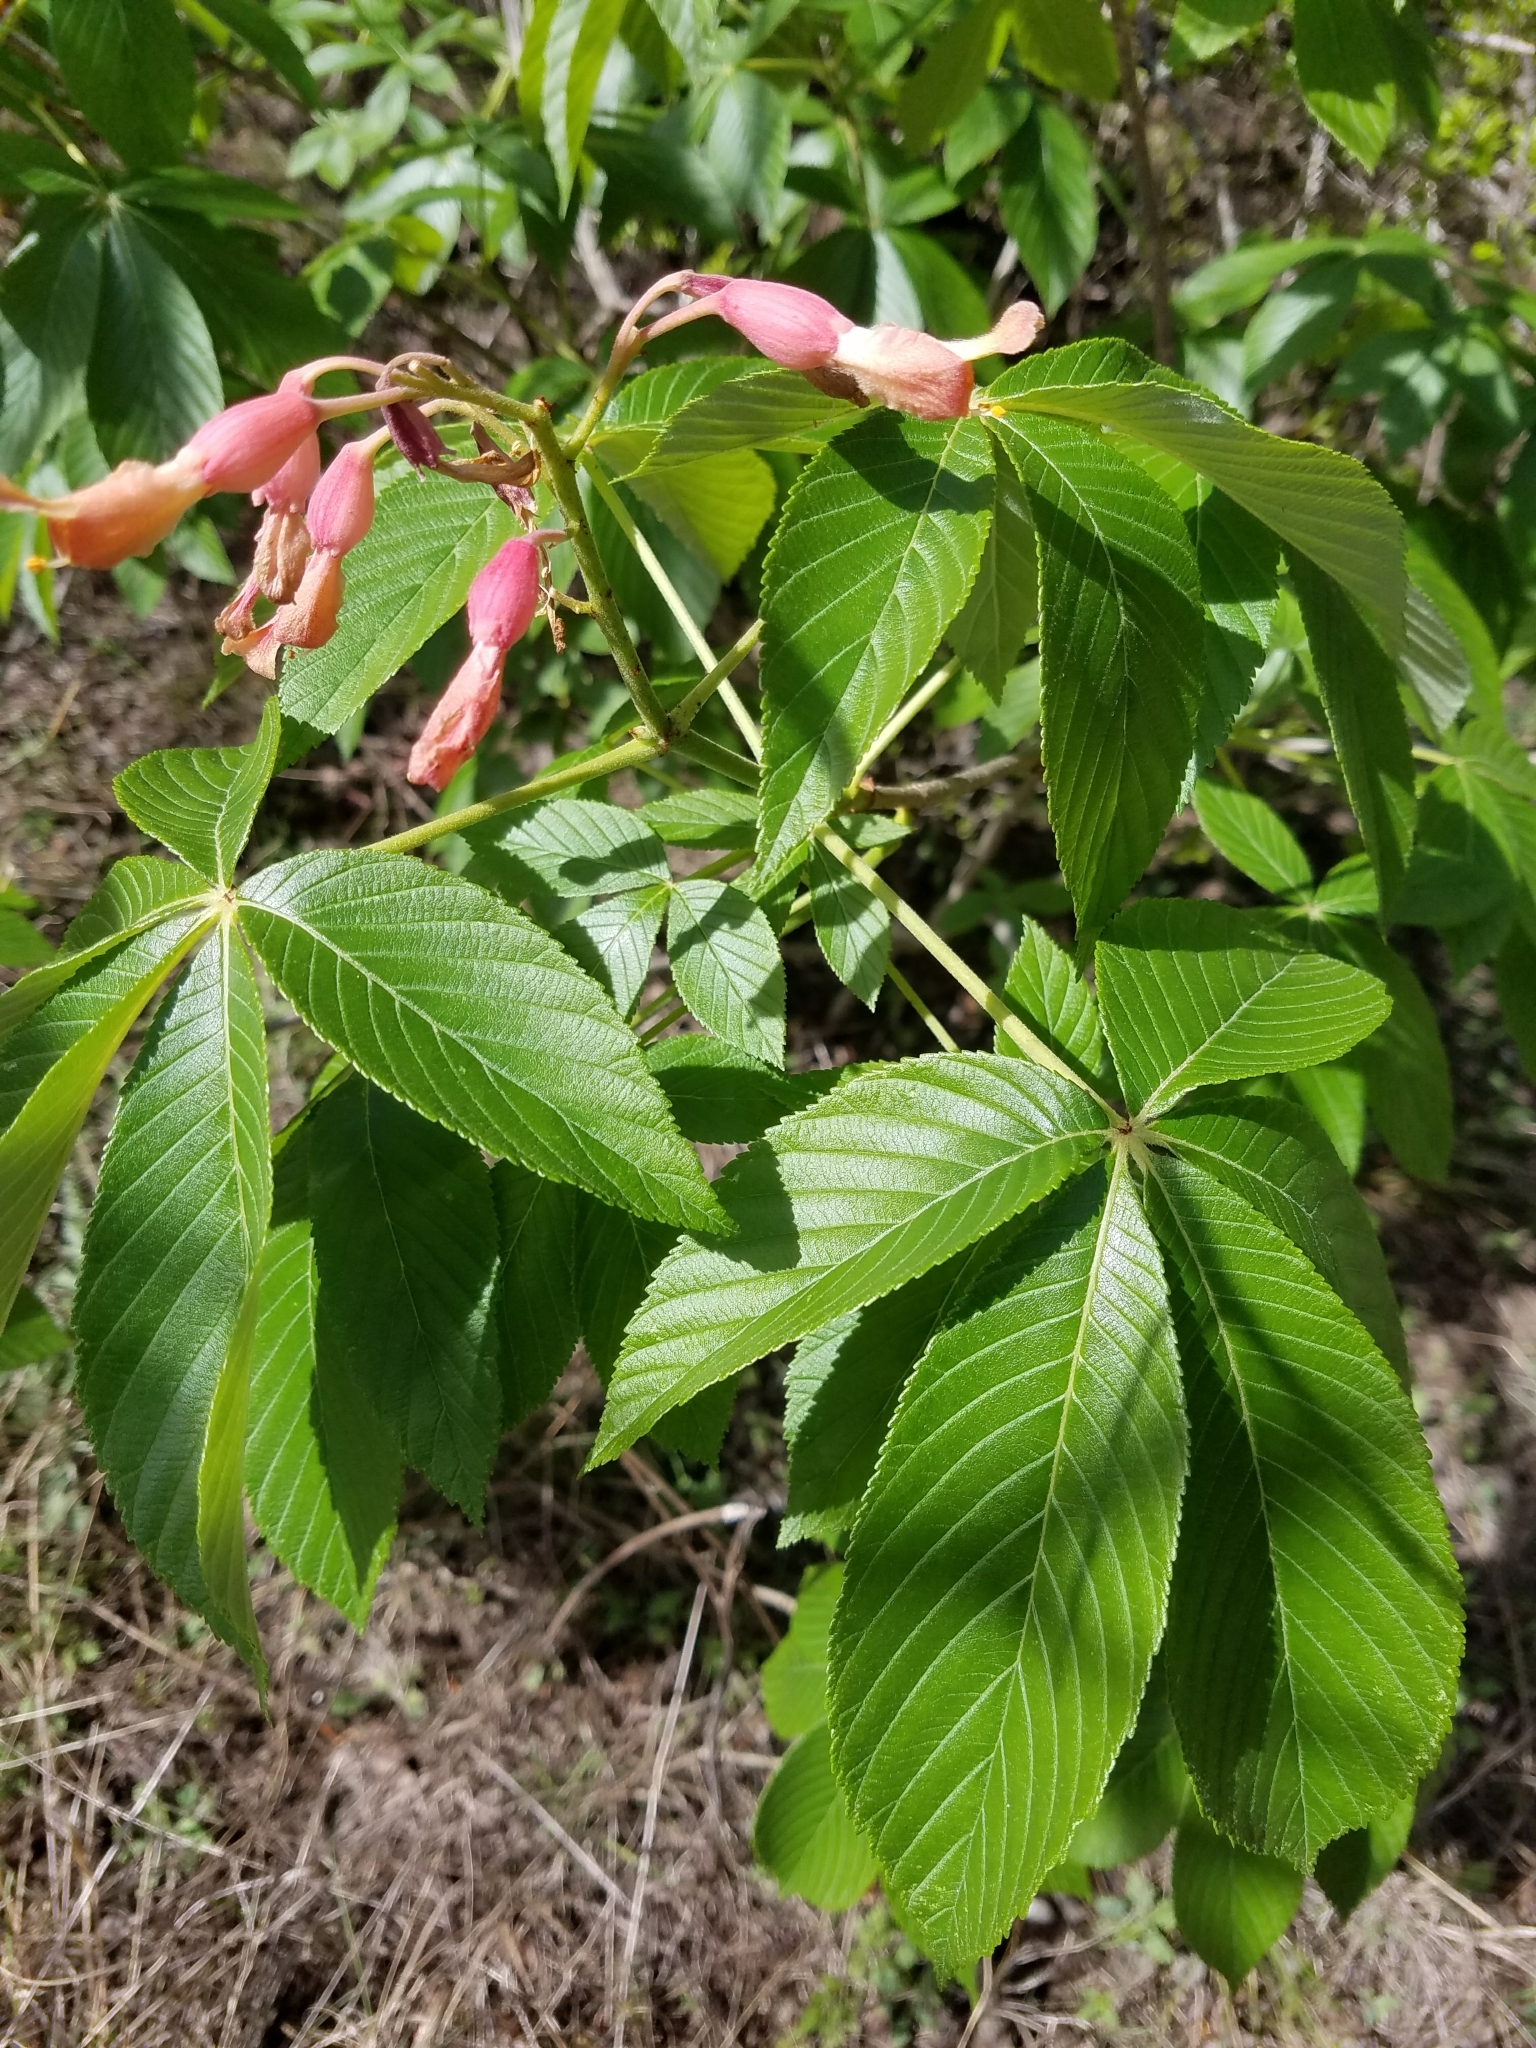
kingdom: Plantae
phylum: Tracheophyta
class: Magnoliopsida
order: Sapindales
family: Sapindaceae
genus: Aesculus
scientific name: Aesculus pavia
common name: Red buckeye
